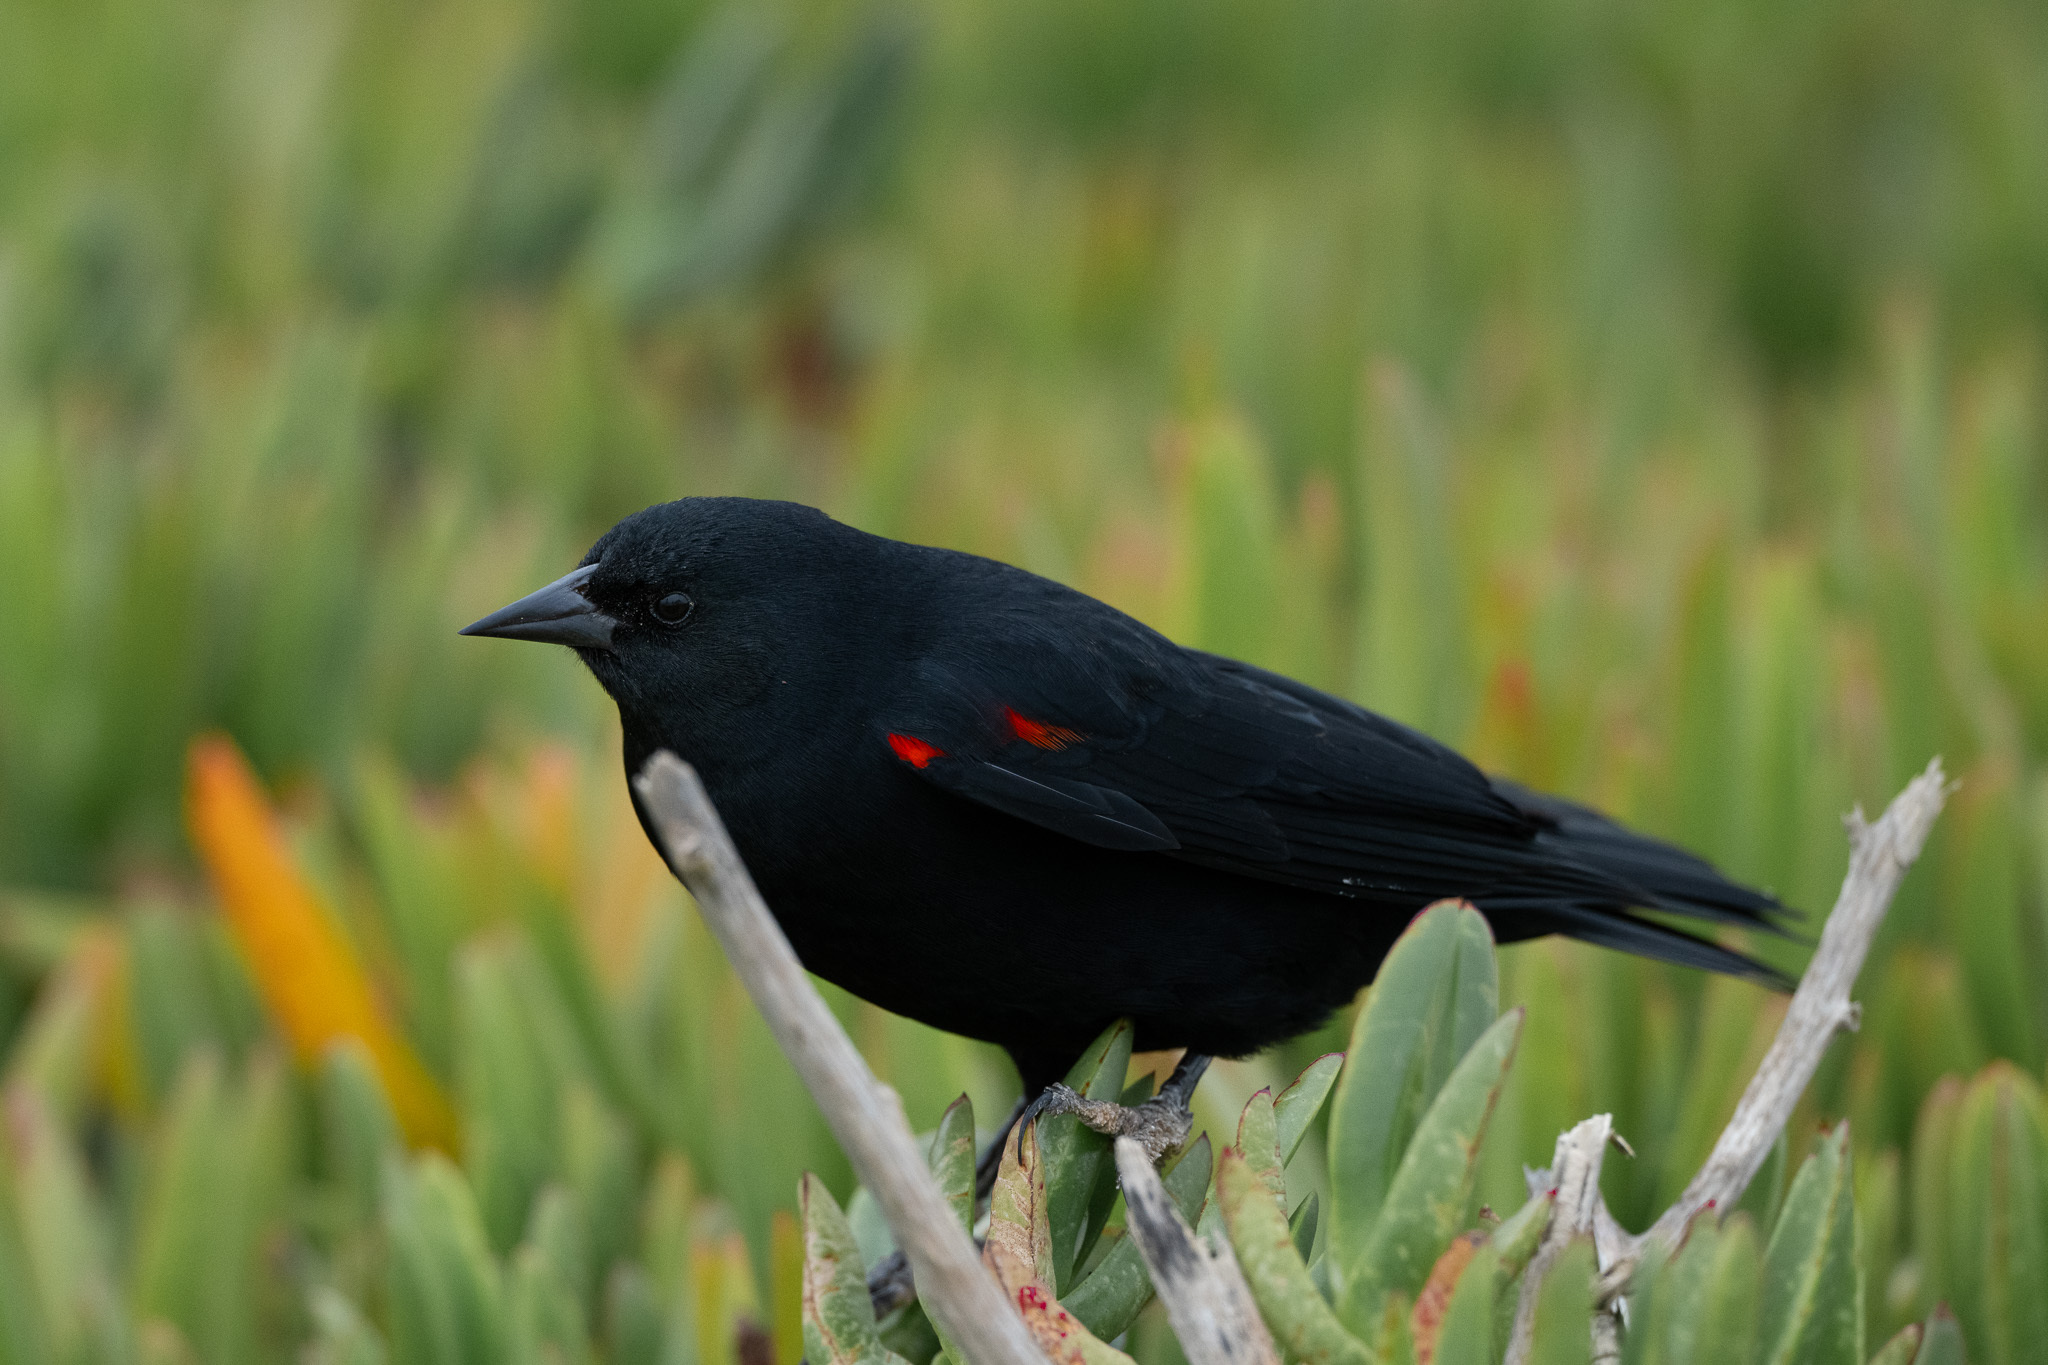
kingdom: Animalia
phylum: Chordata
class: Aves
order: Passeriformes
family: Icteridae
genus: Agelaius
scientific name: Agelaius phoeniceus
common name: Red-winged blackbird
